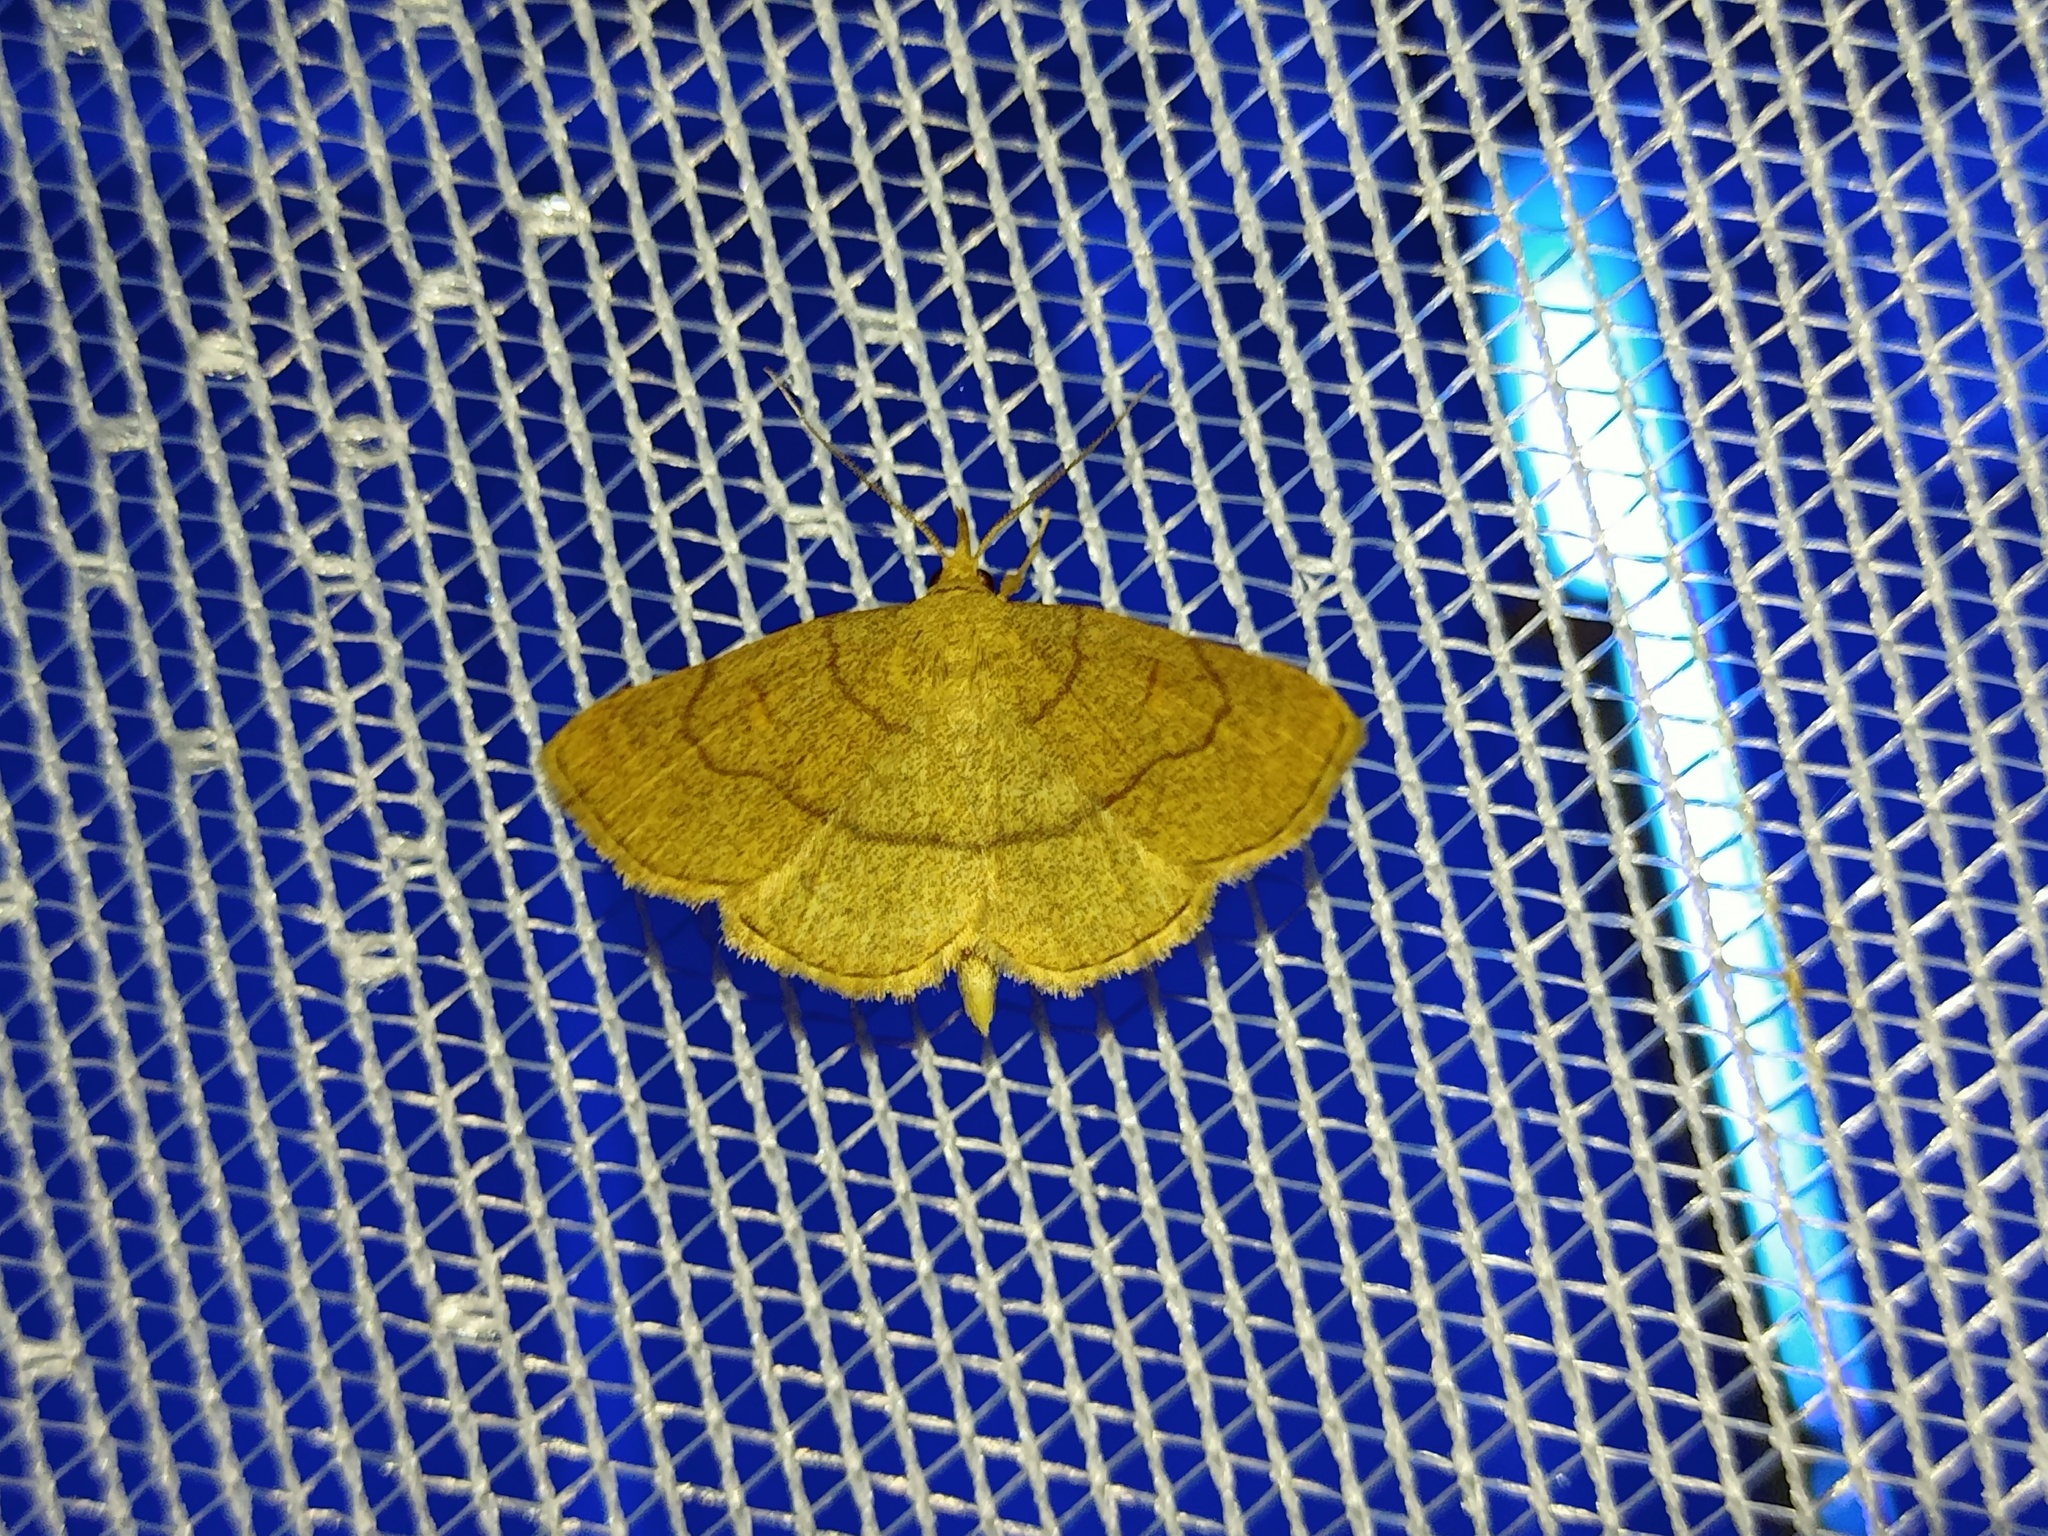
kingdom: Animalia
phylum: Arthropoda
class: Insecta
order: Lepidoptera
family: Erebidae
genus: Paracolax
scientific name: Paracolax tristalis
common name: Clay fan-foot
